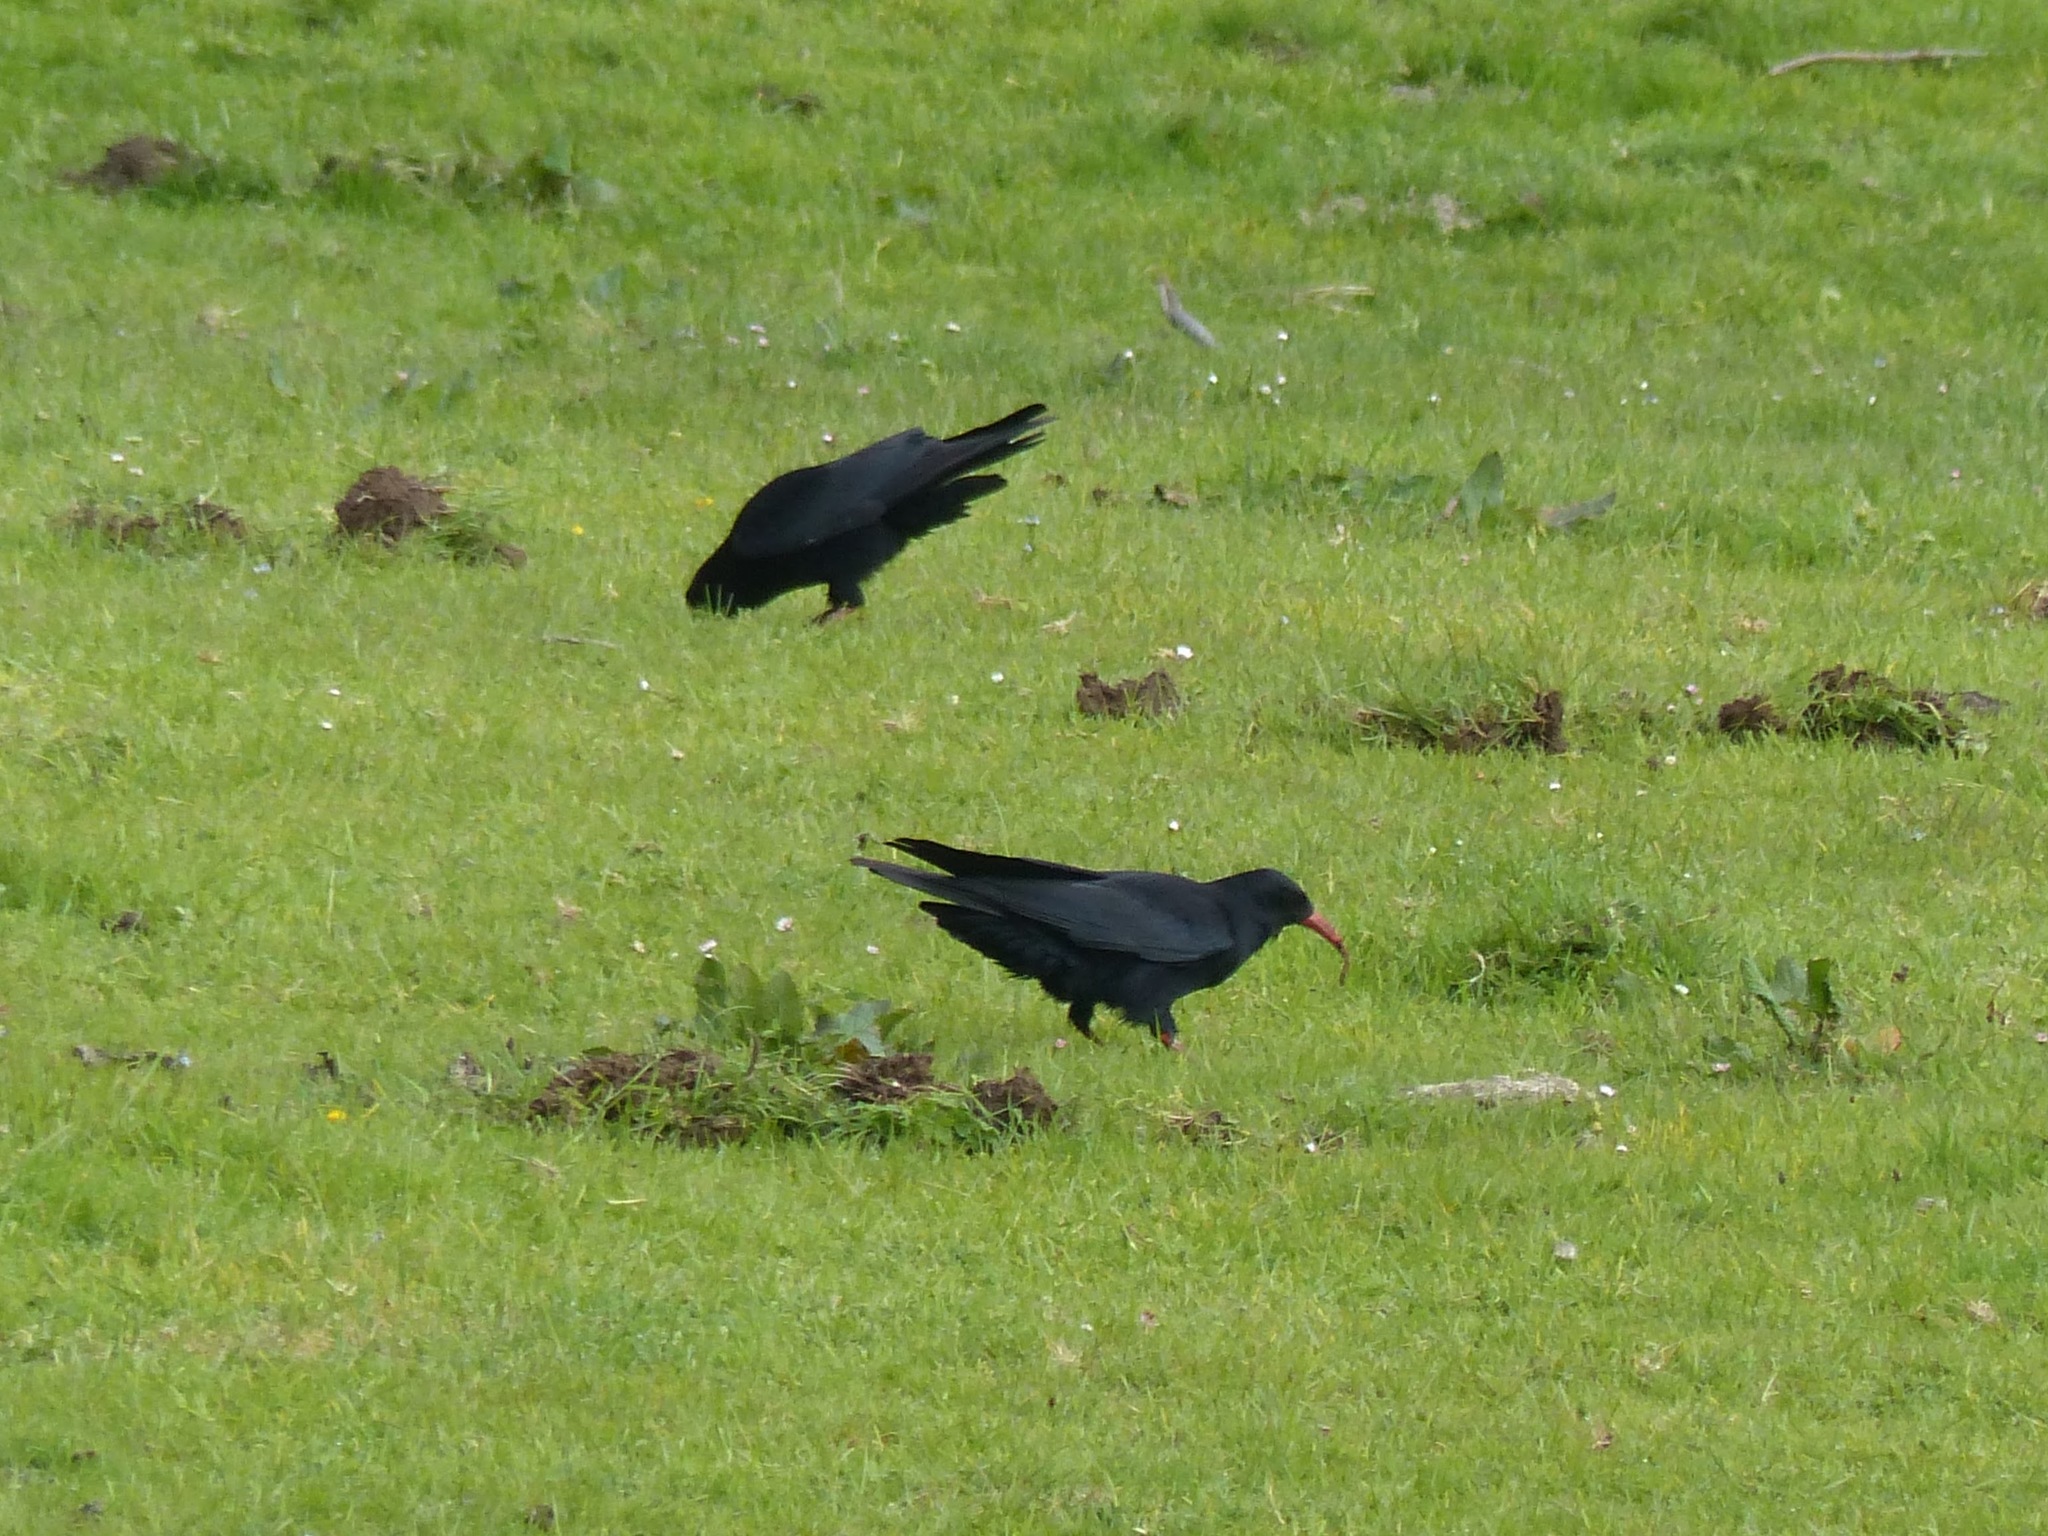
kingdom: Animalia
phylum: Chordata
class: Aves
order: Passeriformes
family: Corvidae
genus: Pyrrhocorax
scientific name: Pyrrhocorax pyrrhocorax
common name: Red-billed chough
